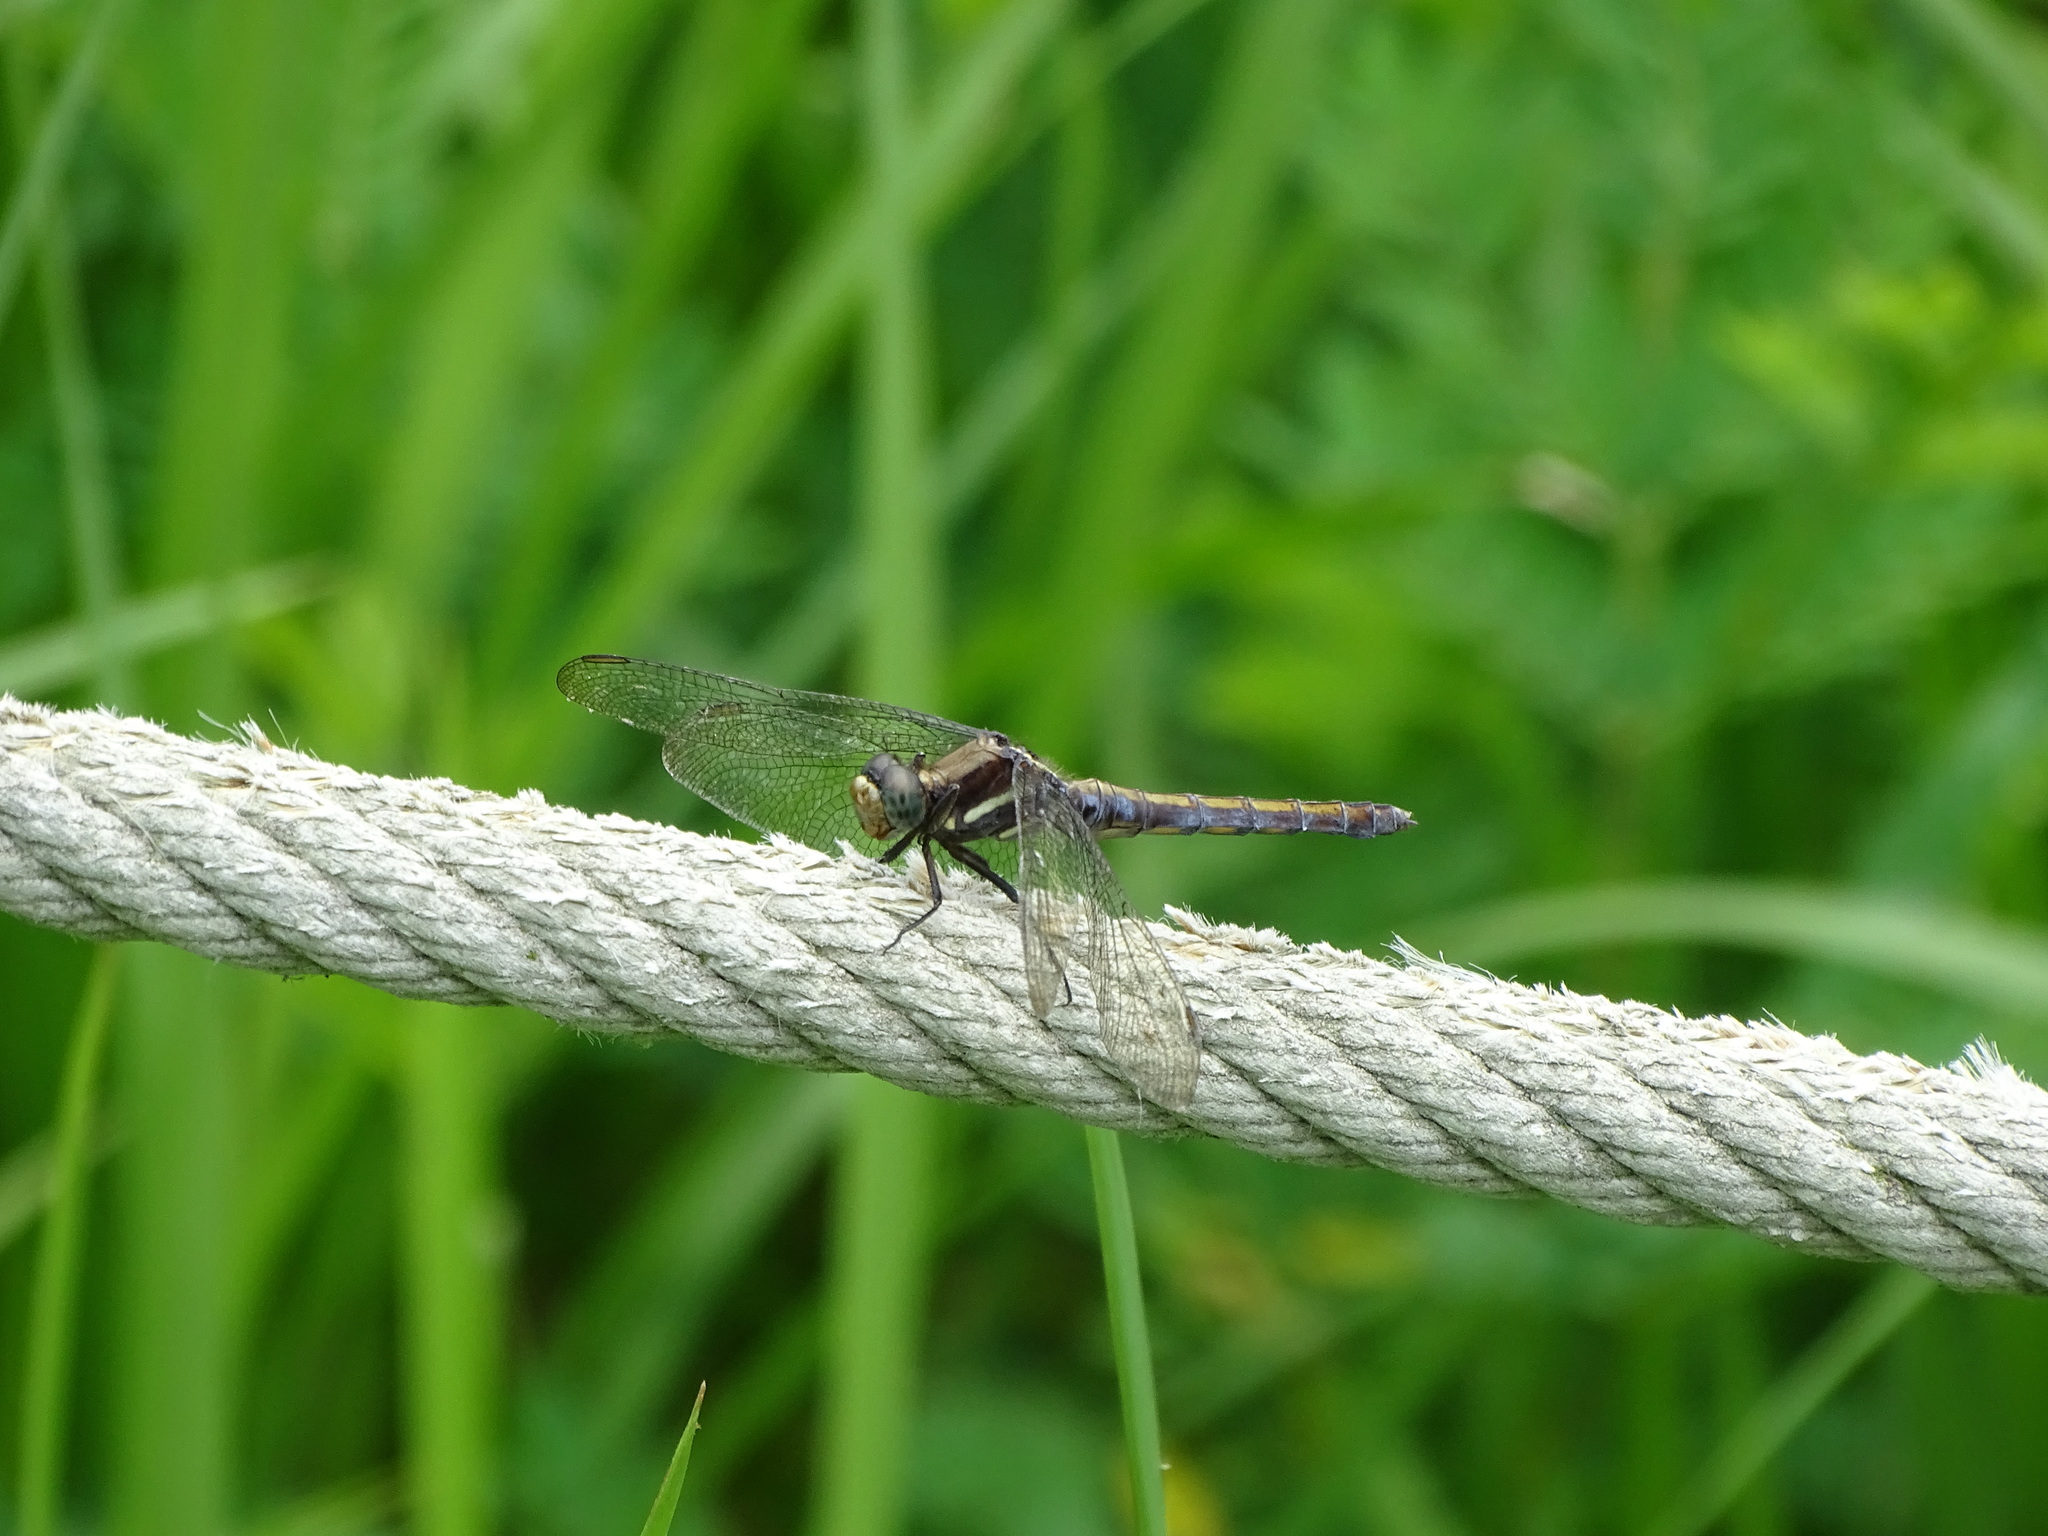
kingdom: Animalia
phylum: Arthropoda
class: Insecta
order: Odonata
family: Libellulidae
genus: Orthetrum
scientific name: Orthetrum glaucum
